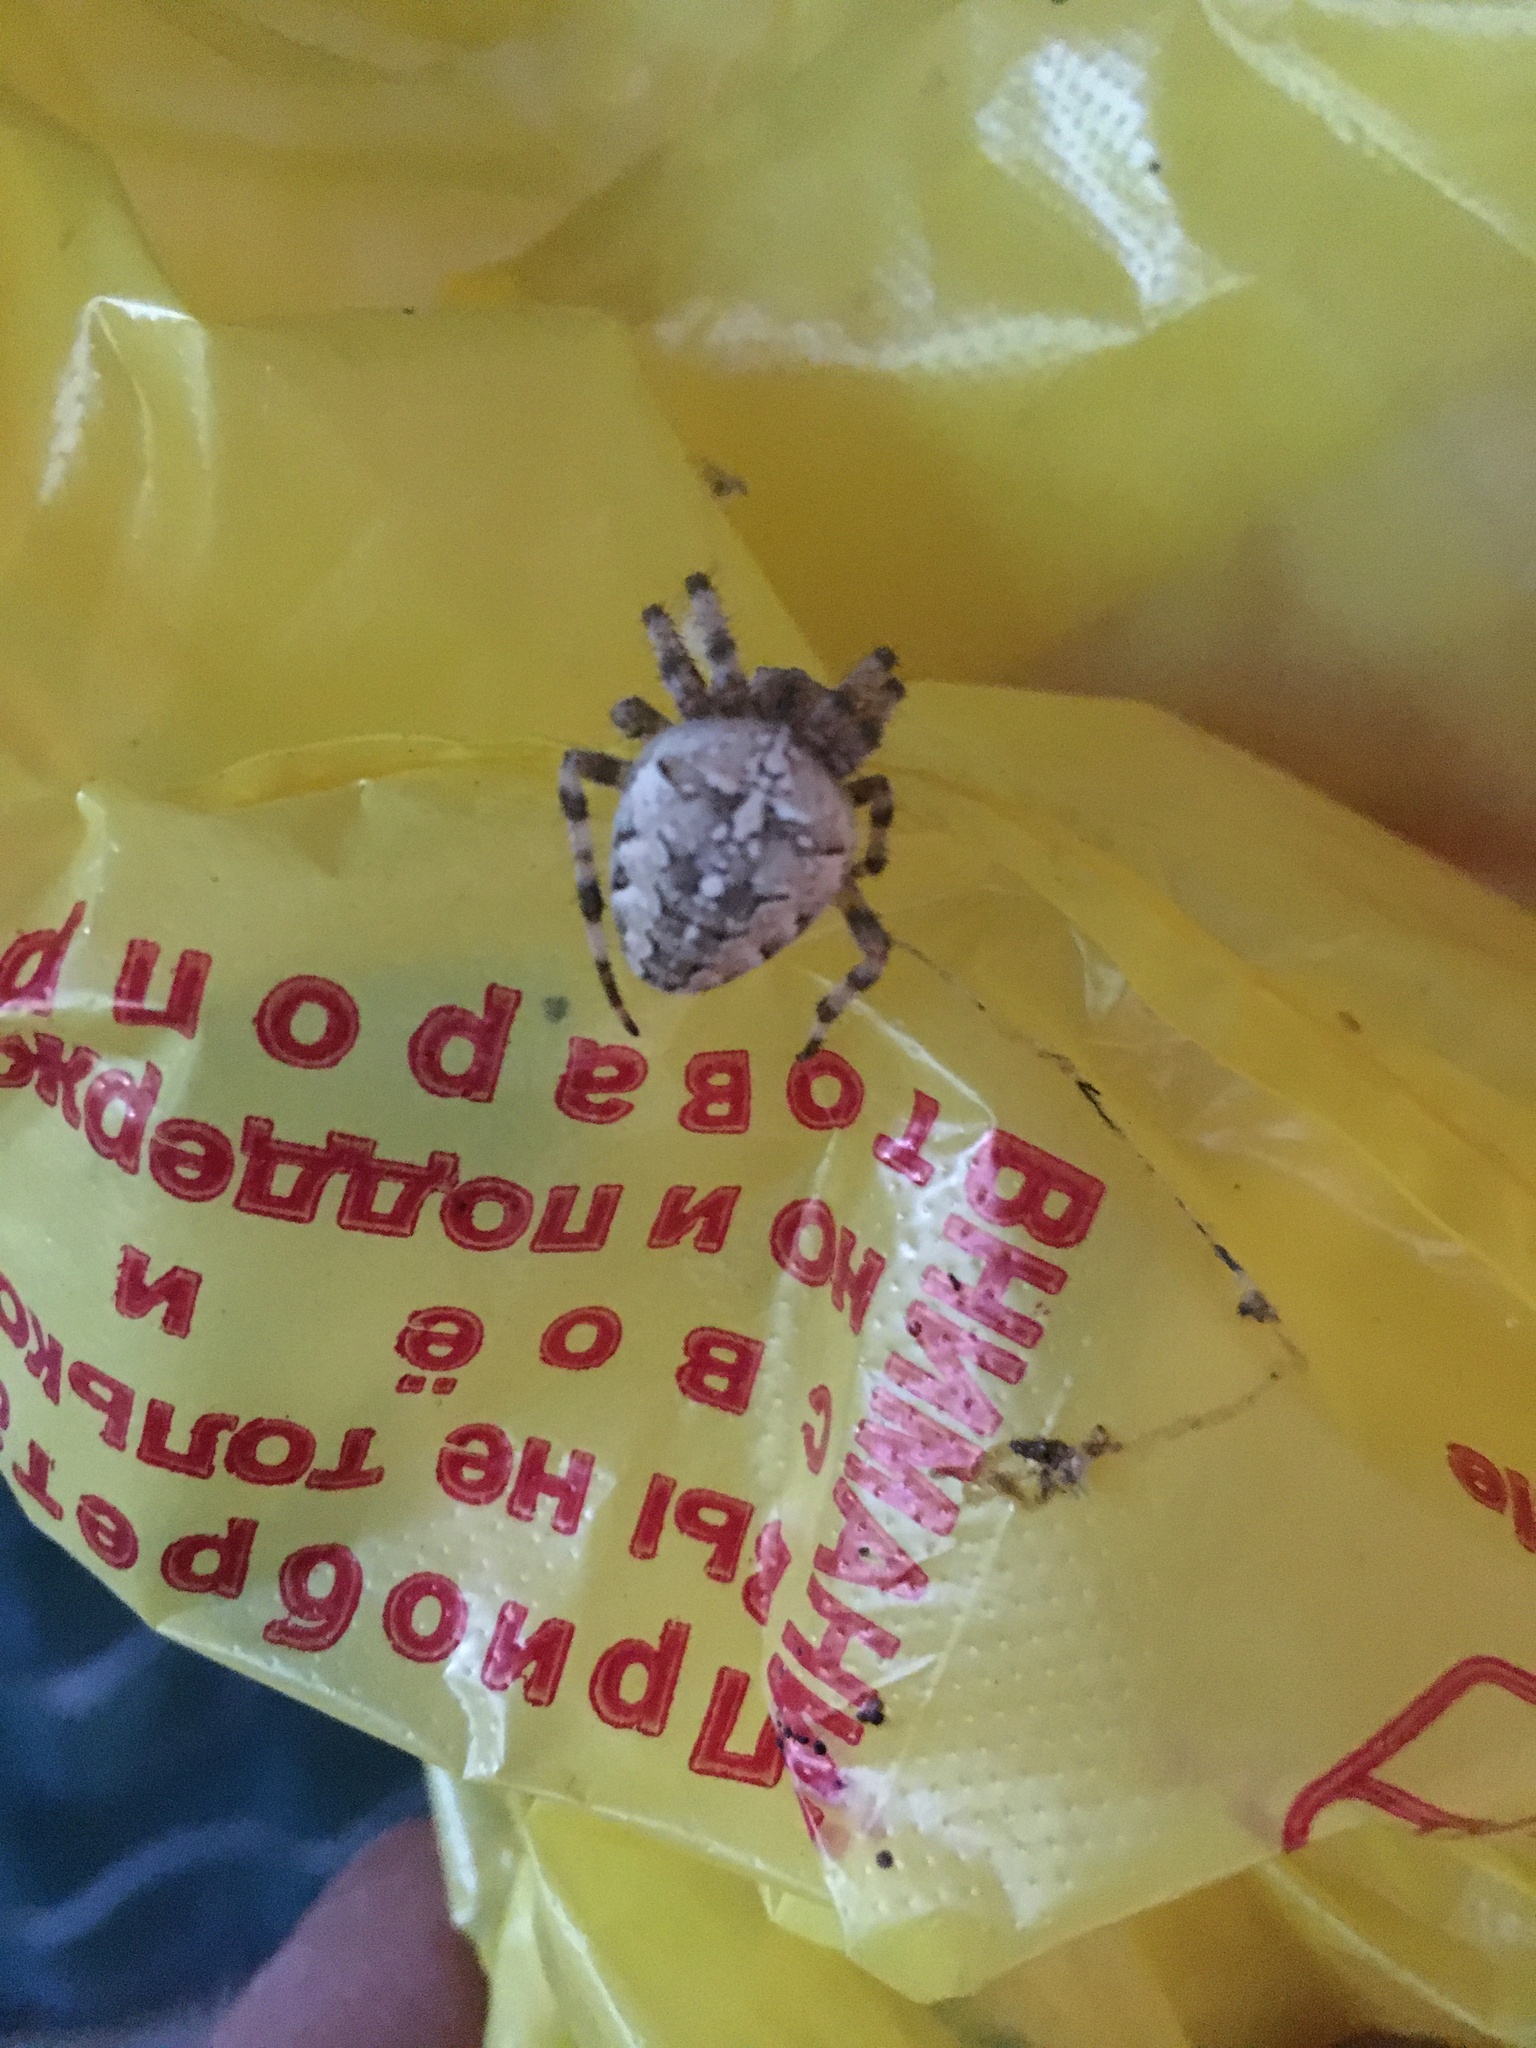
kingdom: Animalia
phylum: Arthropoda
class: Arachnida
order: Araneae
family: Araneidae
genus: Araneus
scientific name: Araneus diadematus
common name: Cross orbweaver
